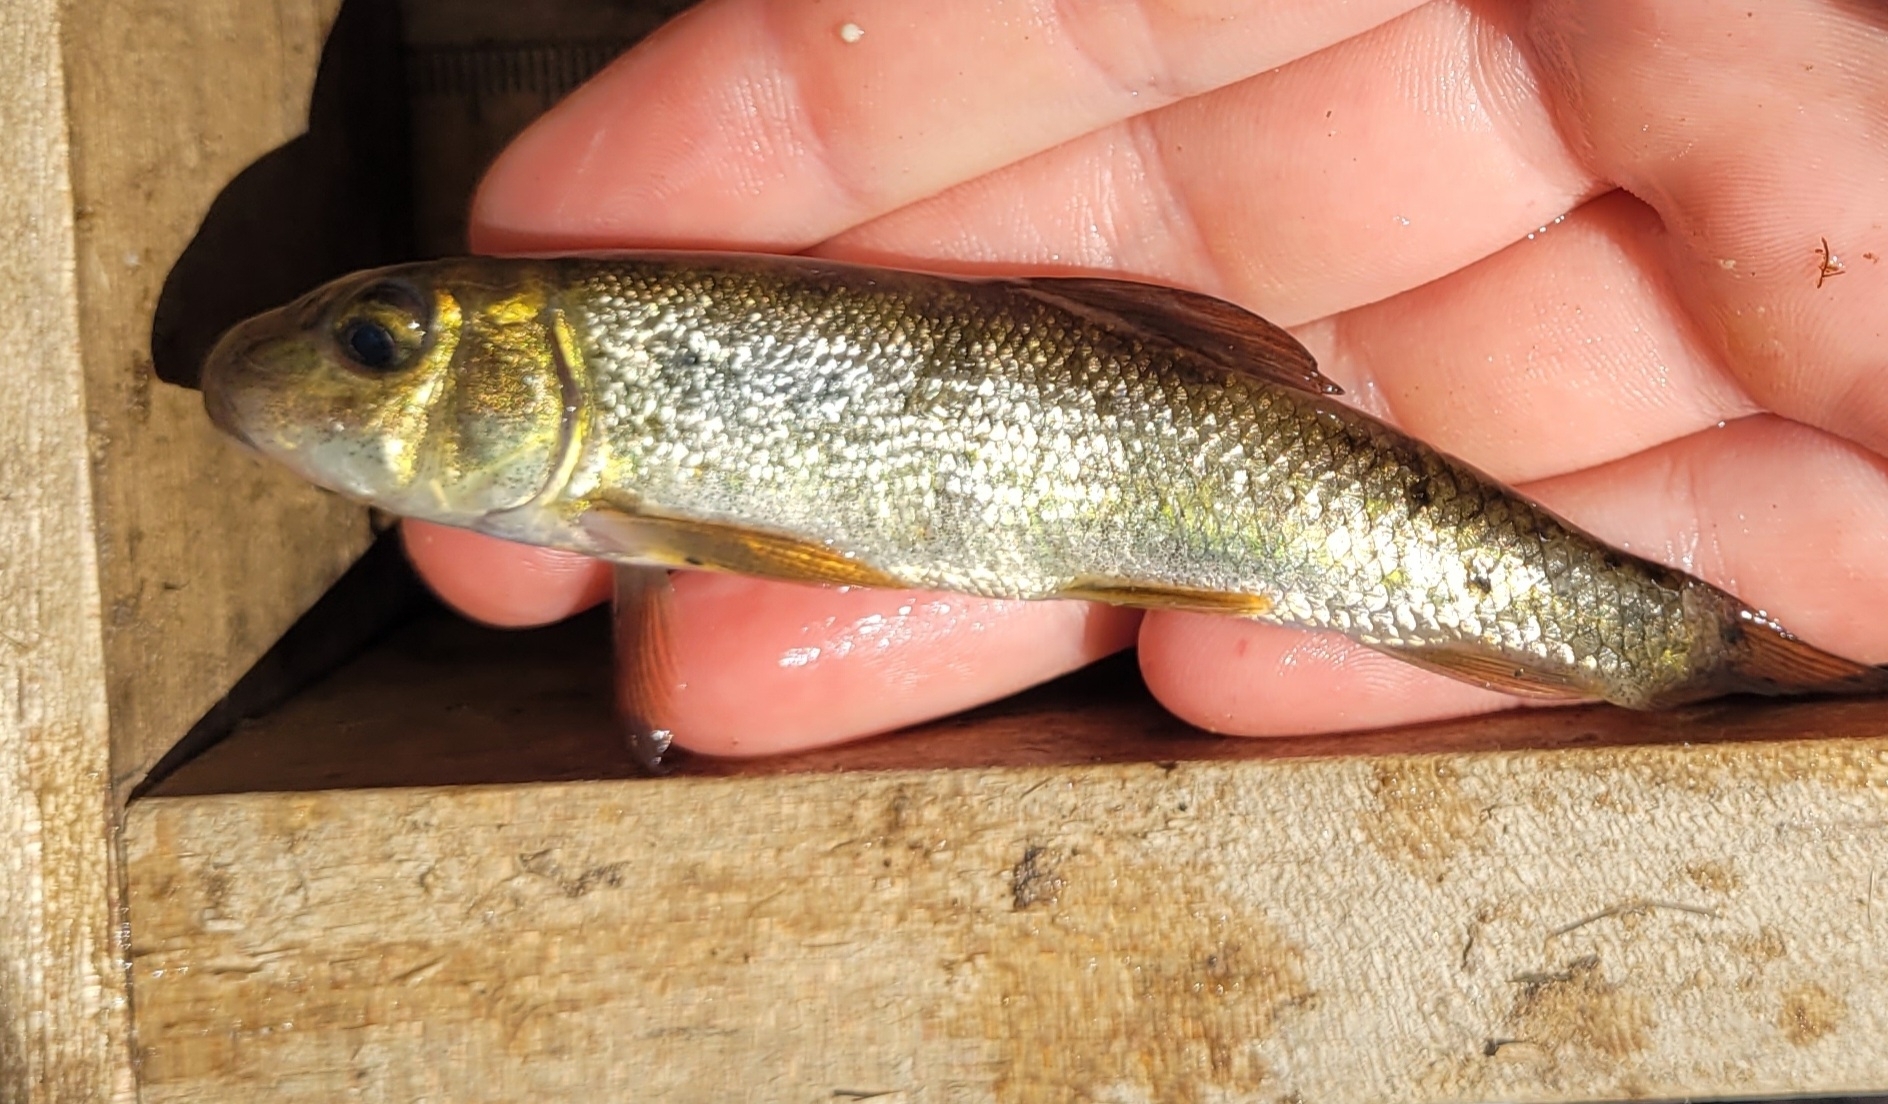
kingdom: Animalia
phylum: Chordata
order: Cypriniformes
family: Catostomidae
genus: Catostomus
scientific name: Catostomus commersonii
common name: White sucker
